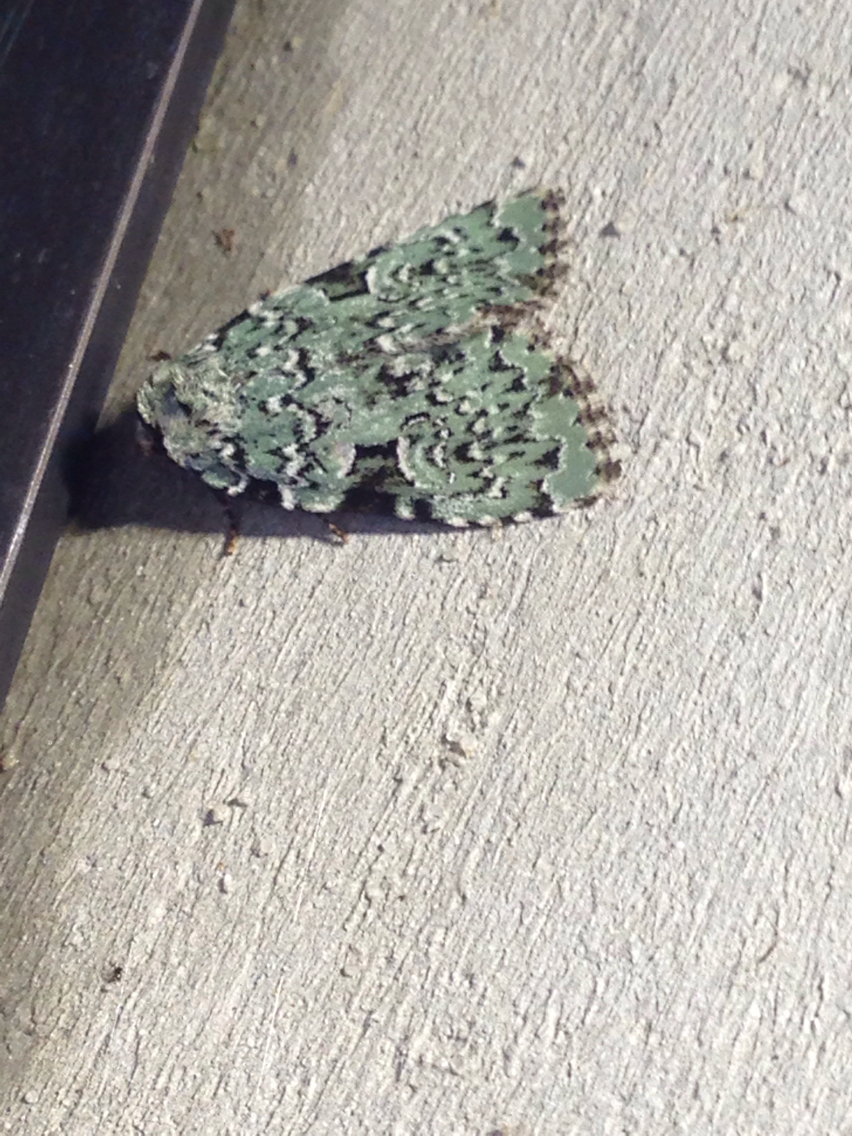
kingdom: Animalia
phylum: Arthropoda
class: Insecta
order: Lepidoptera
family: Noctuidae
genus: Leuconycta
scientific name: Leuconycta diphteroides
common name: Green leuconycta moth
